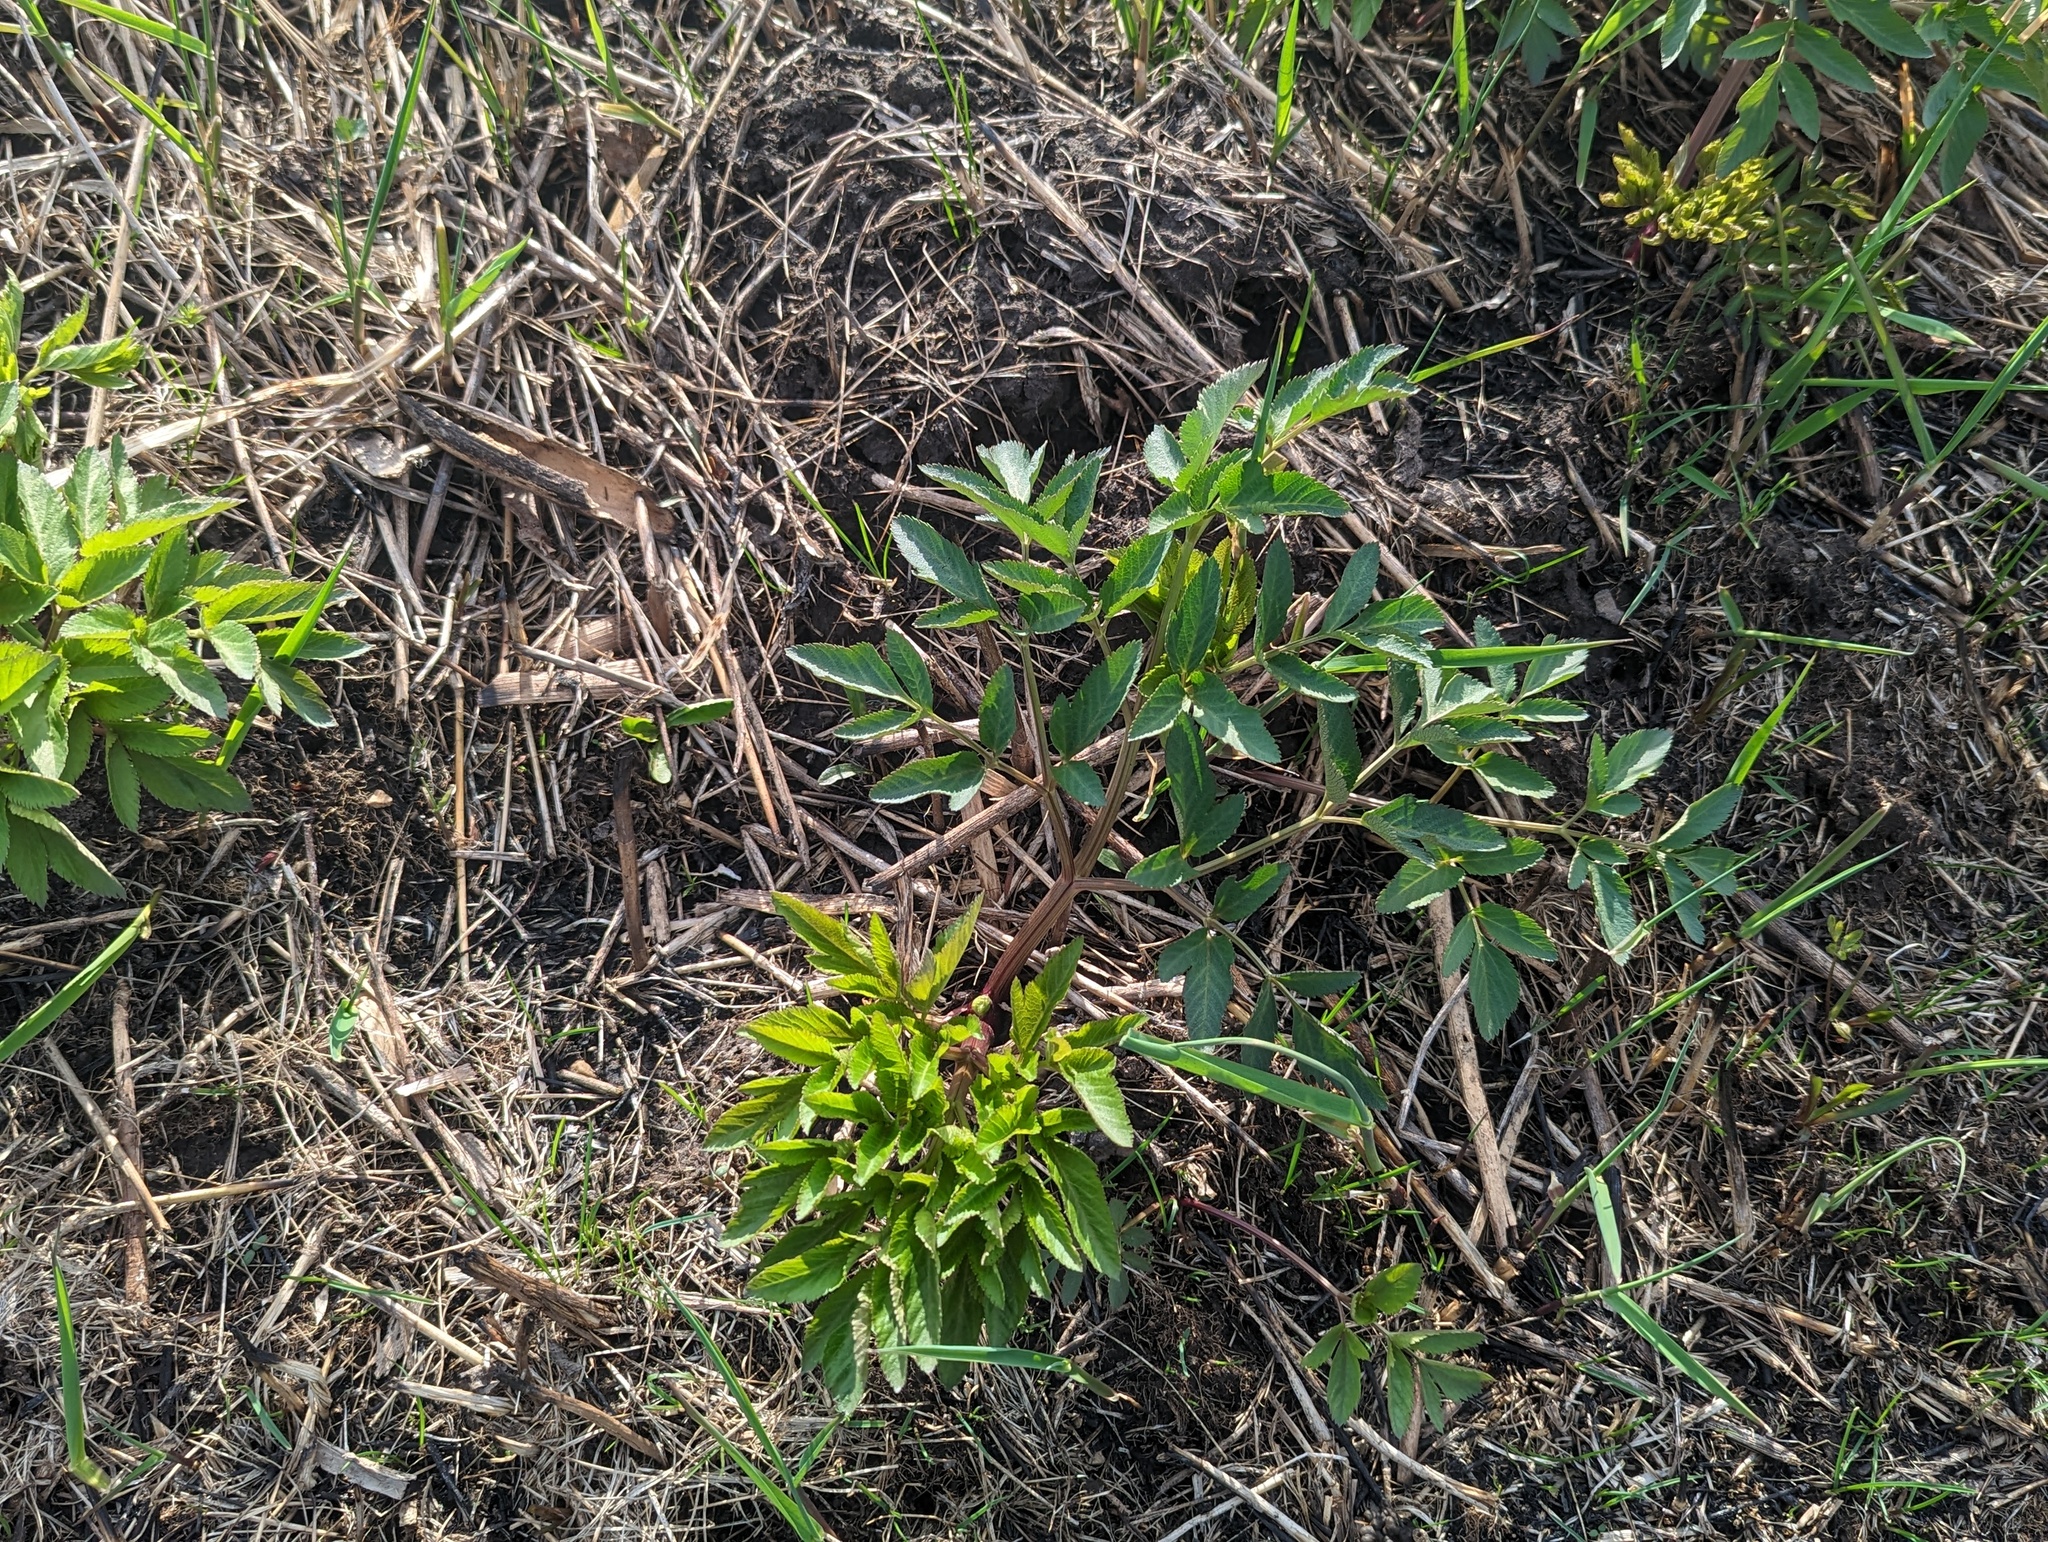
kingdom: Plantae
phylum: Tracheophyta
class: Magnoliopsida
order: Apiales
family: Apiaceae
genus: Angelica
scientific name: Angelica atropurpurea
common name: Great angelica
